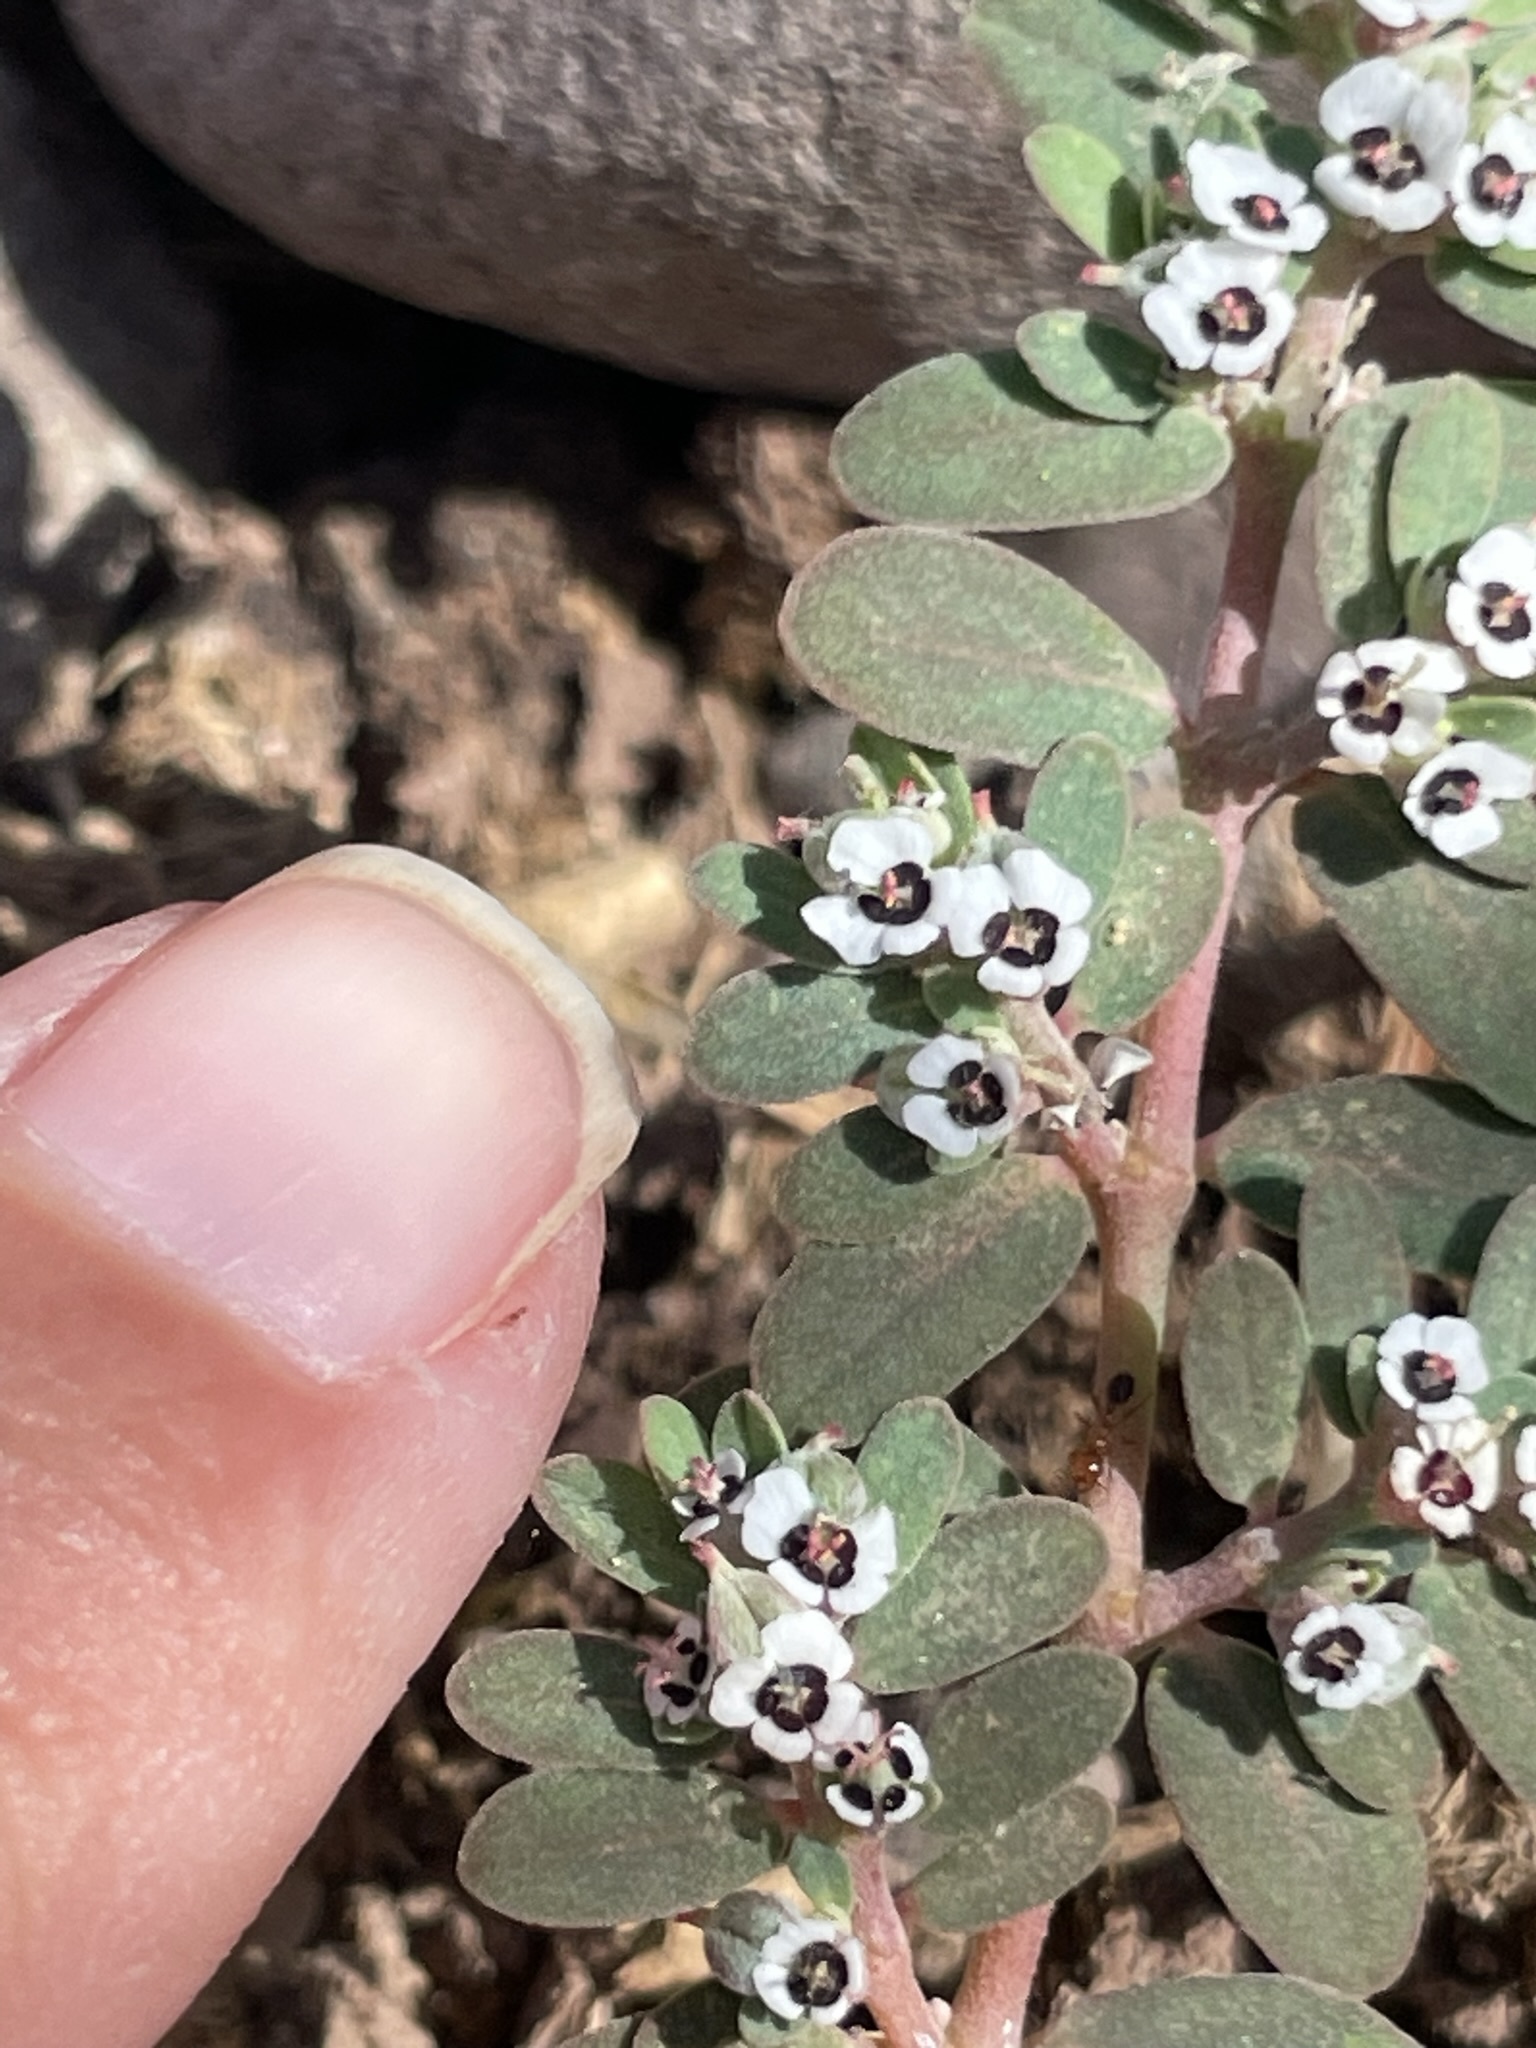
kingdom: Plantae
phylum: Tracheophyta
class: Magnoliopsida
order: Malpighiales
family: Euphorbiaceae
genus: Euphorbia
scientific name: Euphorbia pediculifera
